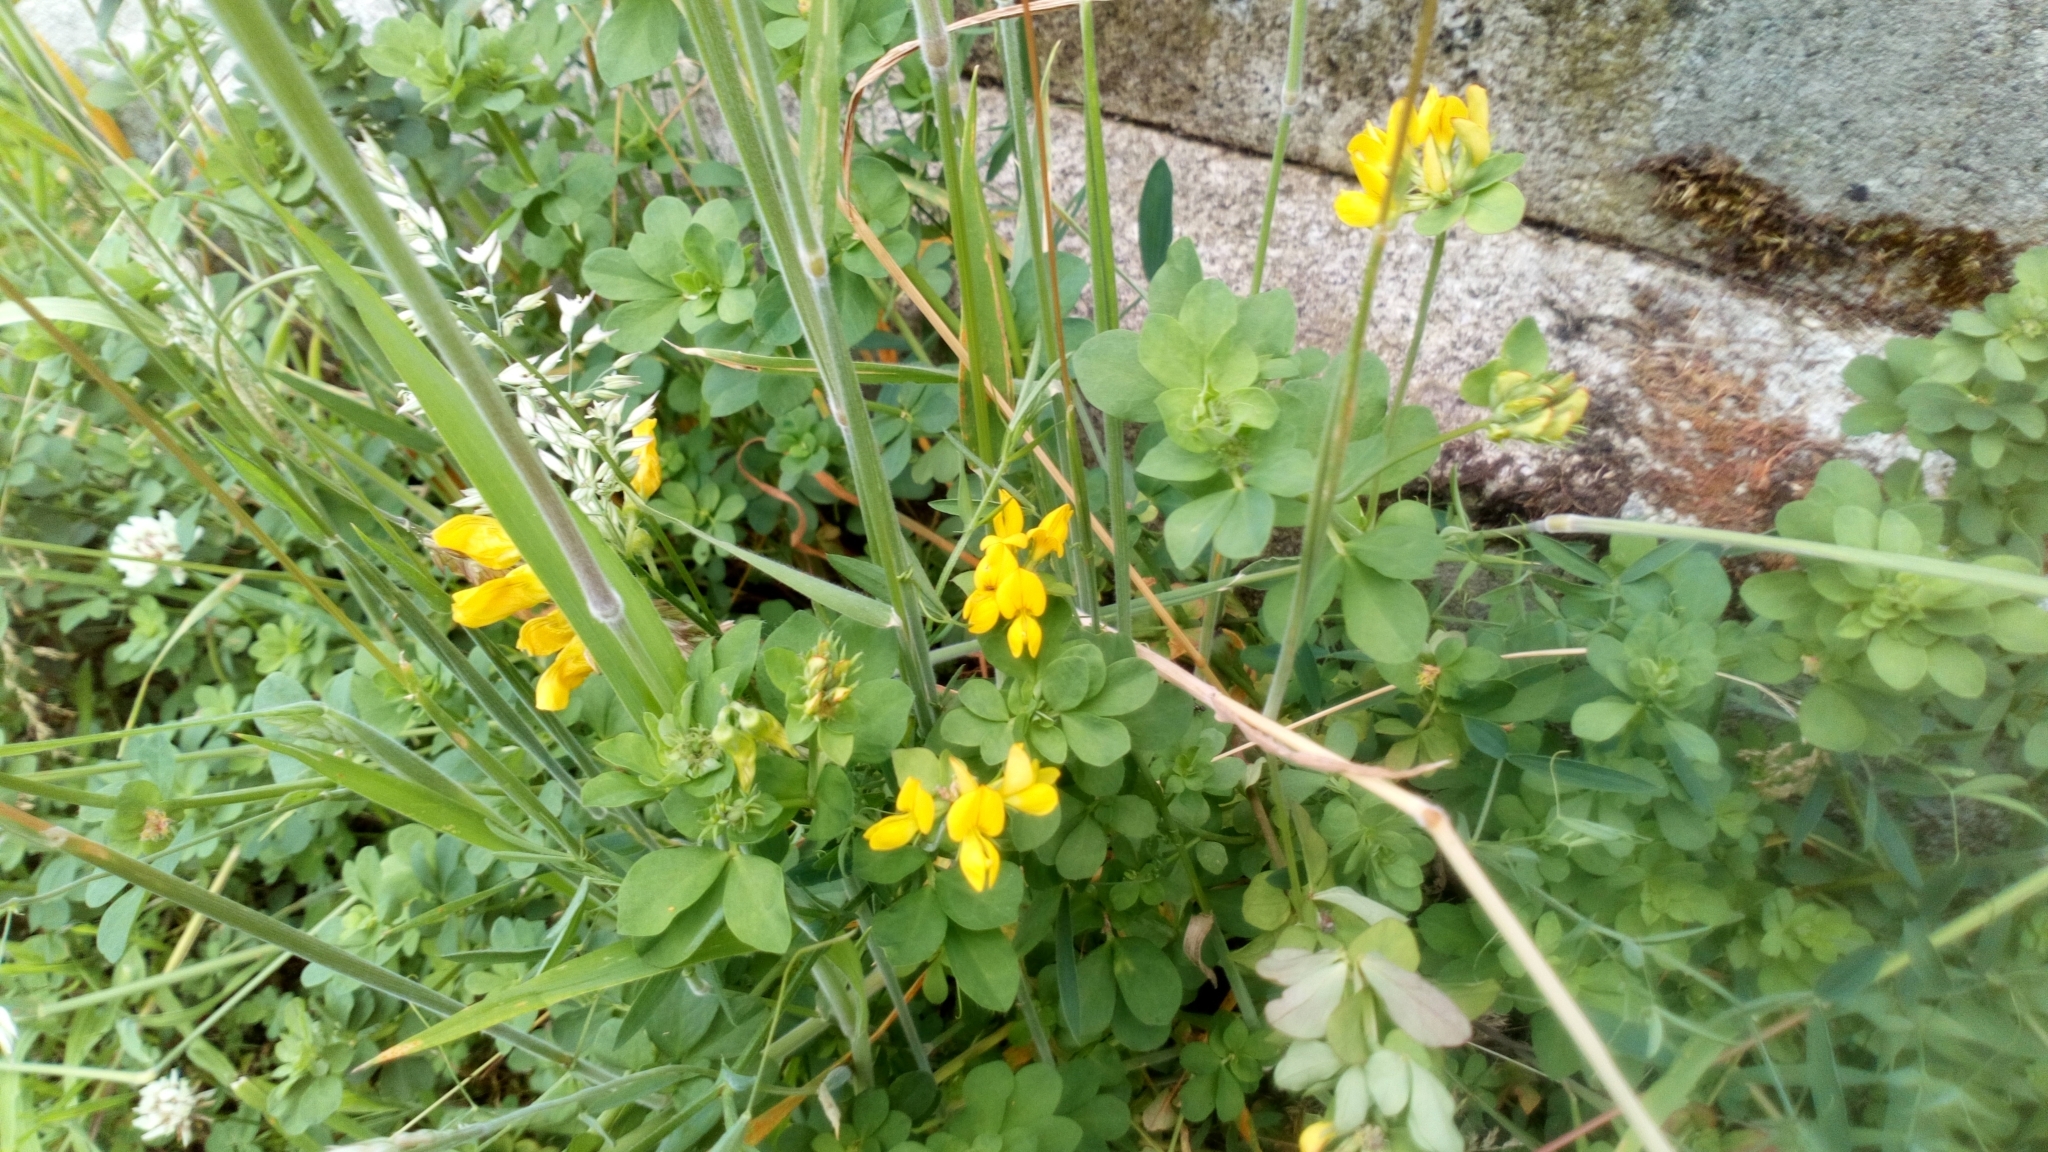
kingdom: Plantae
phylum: Tracheophyta
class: Magnoliopsida
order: Fabales
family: Fabaceae
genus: Lotus
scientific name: Lotus pedunculatus
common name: Greater birdsfoot-trefoil
